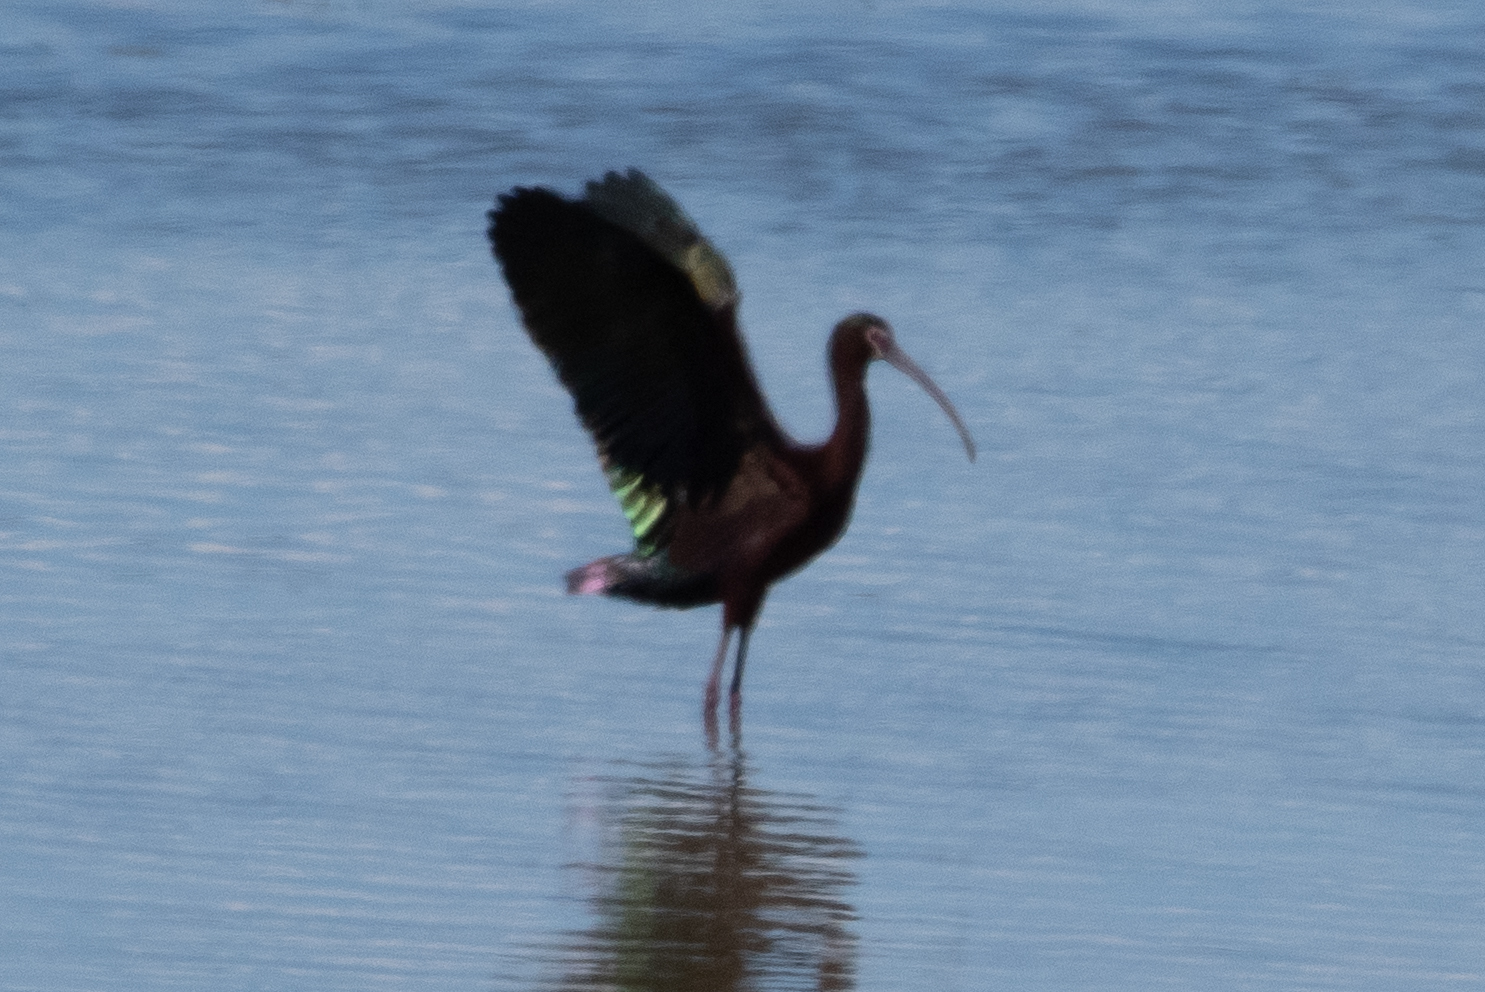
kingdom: Animalia
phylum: Chordata
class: Aves
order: Pelecaniformes
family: Threskiornithidae
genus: Plegadis
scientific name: Plegadis chihi
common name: White-faced ibis
